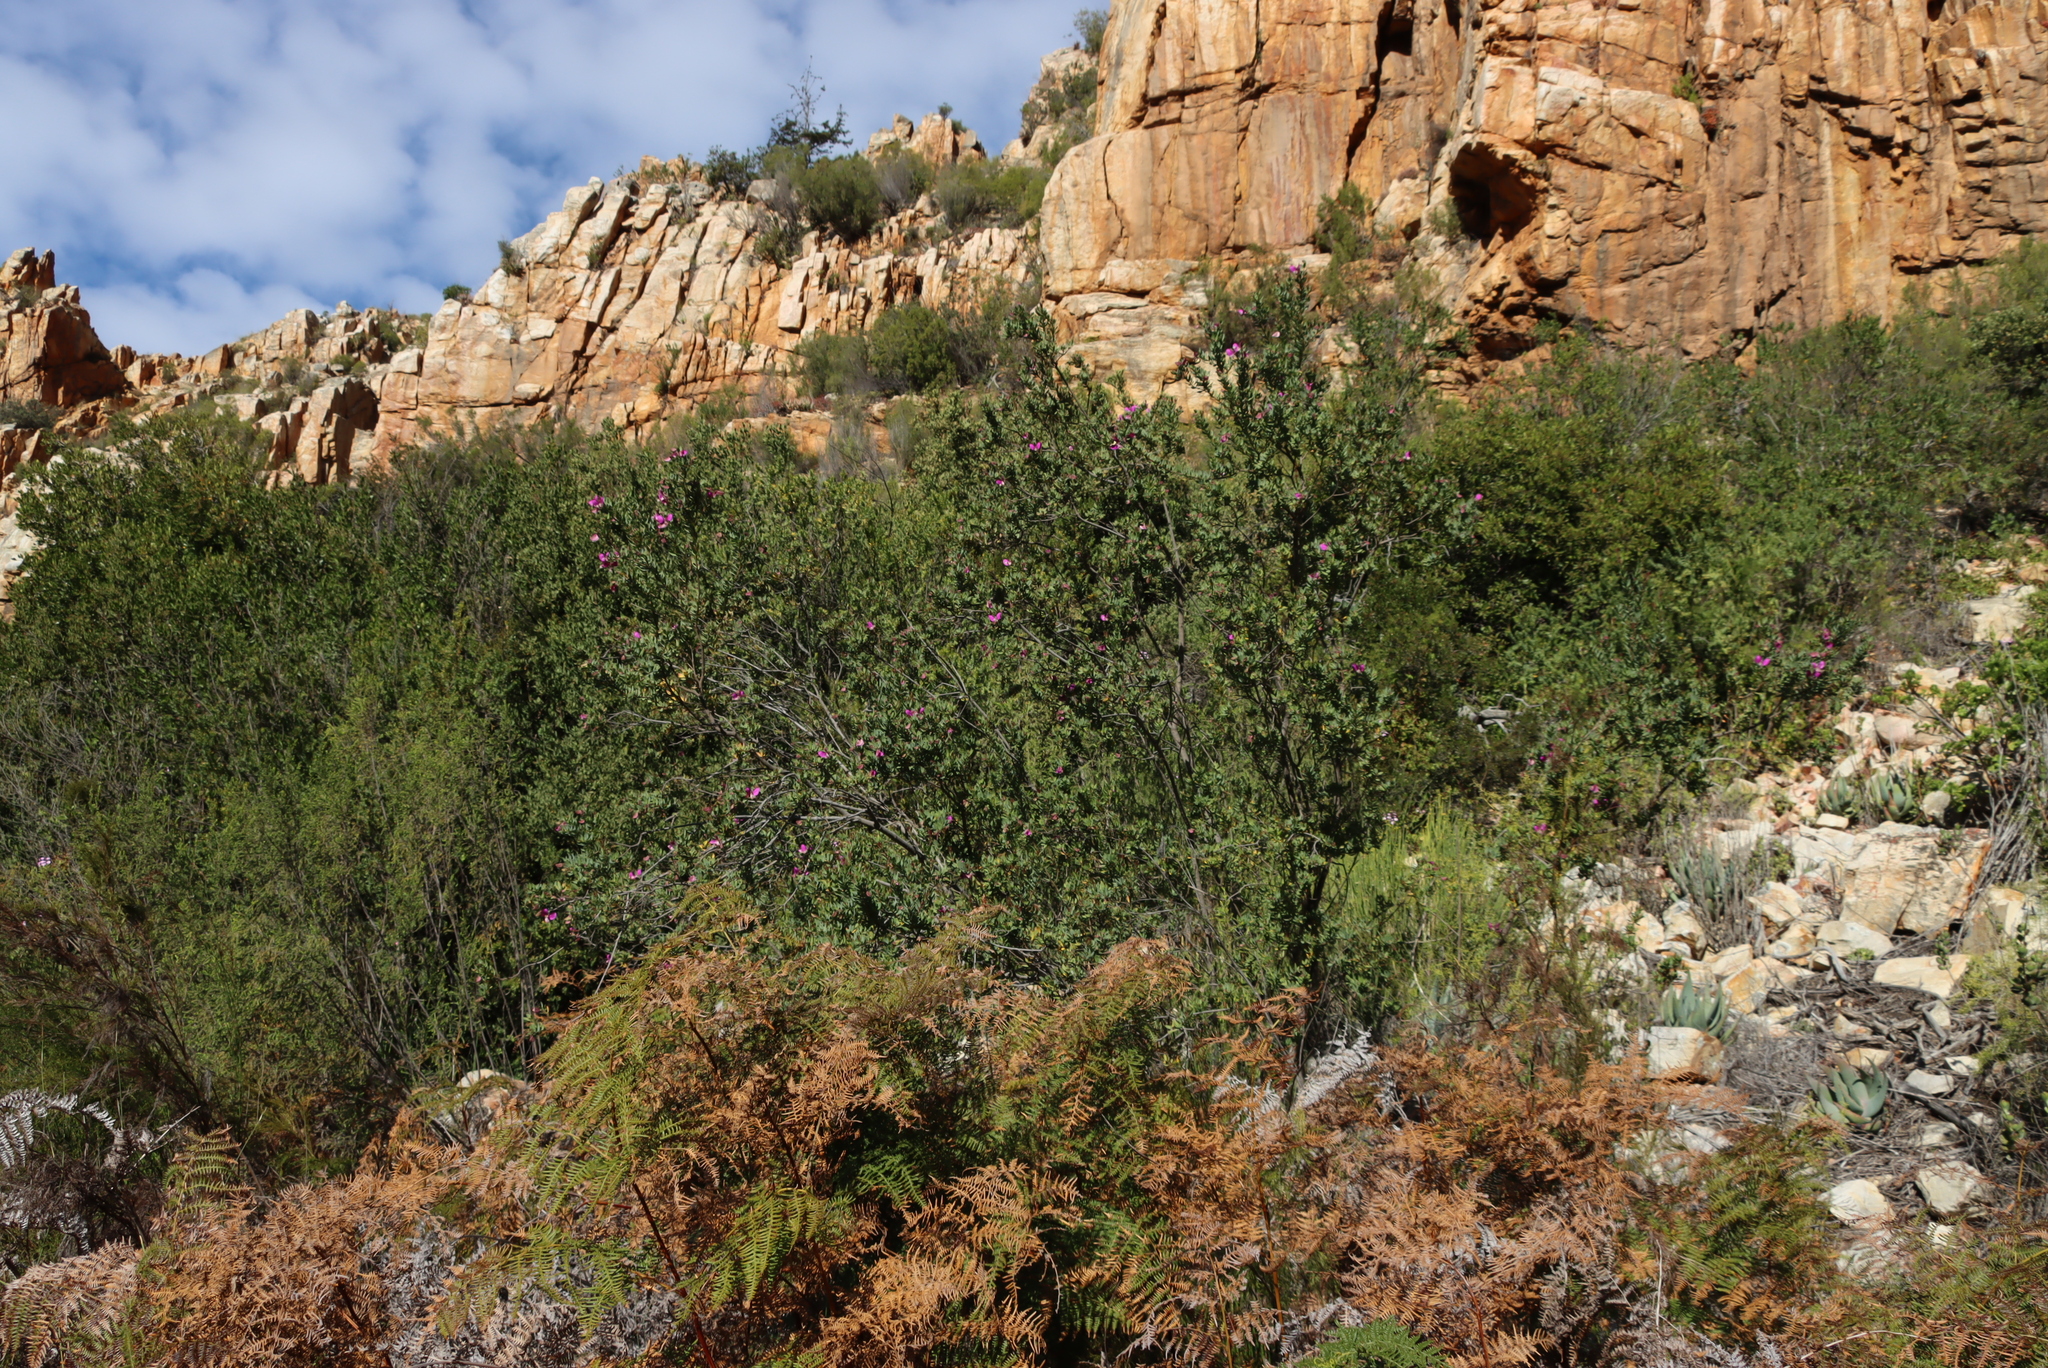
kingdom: Plantae
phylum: Tracheophyta
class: Magnoliopsida
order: Fabales
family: Polygalaceae
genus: Polygala
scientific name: Polygala myrtifolia
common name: Myrtle-leaf milkwort
